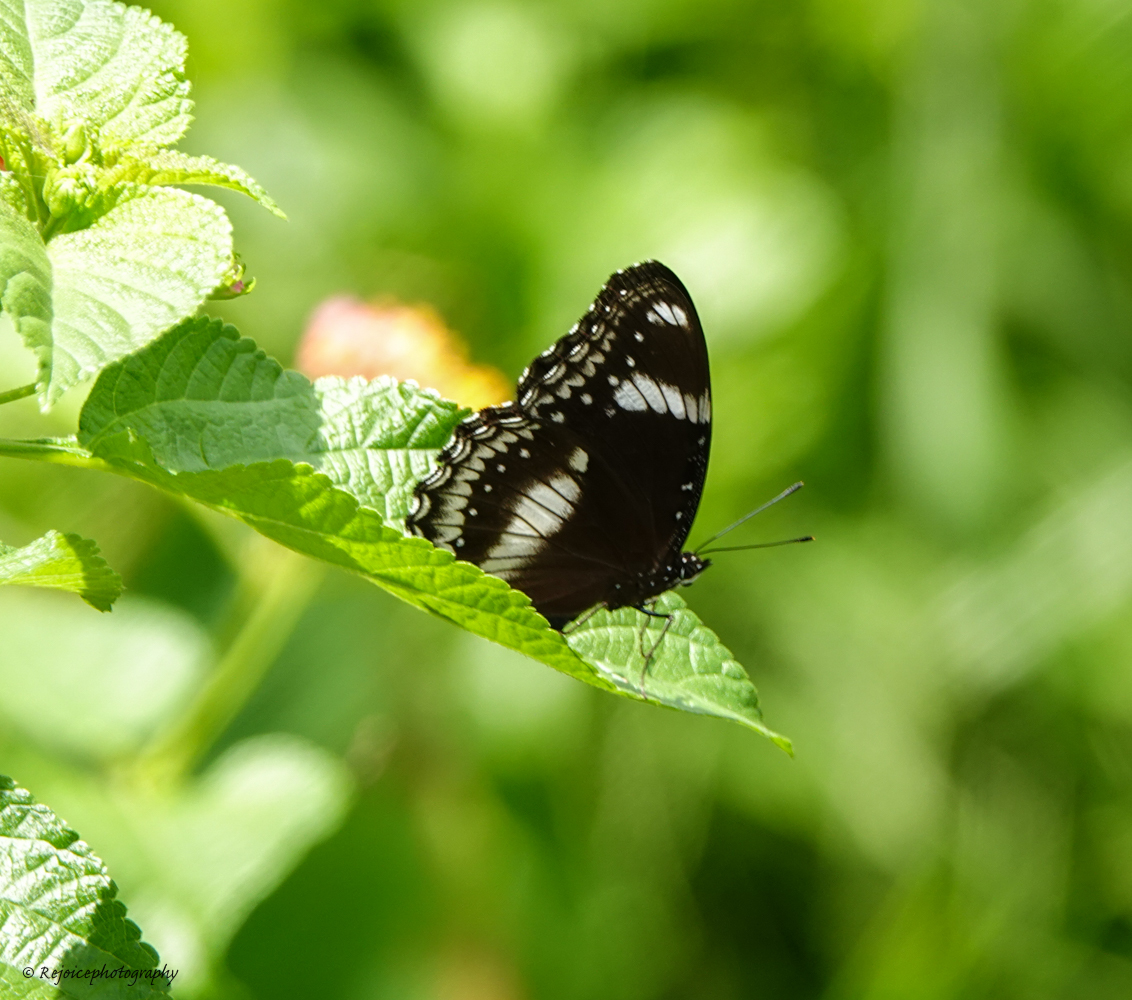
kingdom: Animalia
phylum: Arthropoda
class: Insecta
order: Lepidoptera
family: Nymphalidae
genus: Hypolimnas
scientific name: Hypolimnas bolina
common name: Great eggfly
